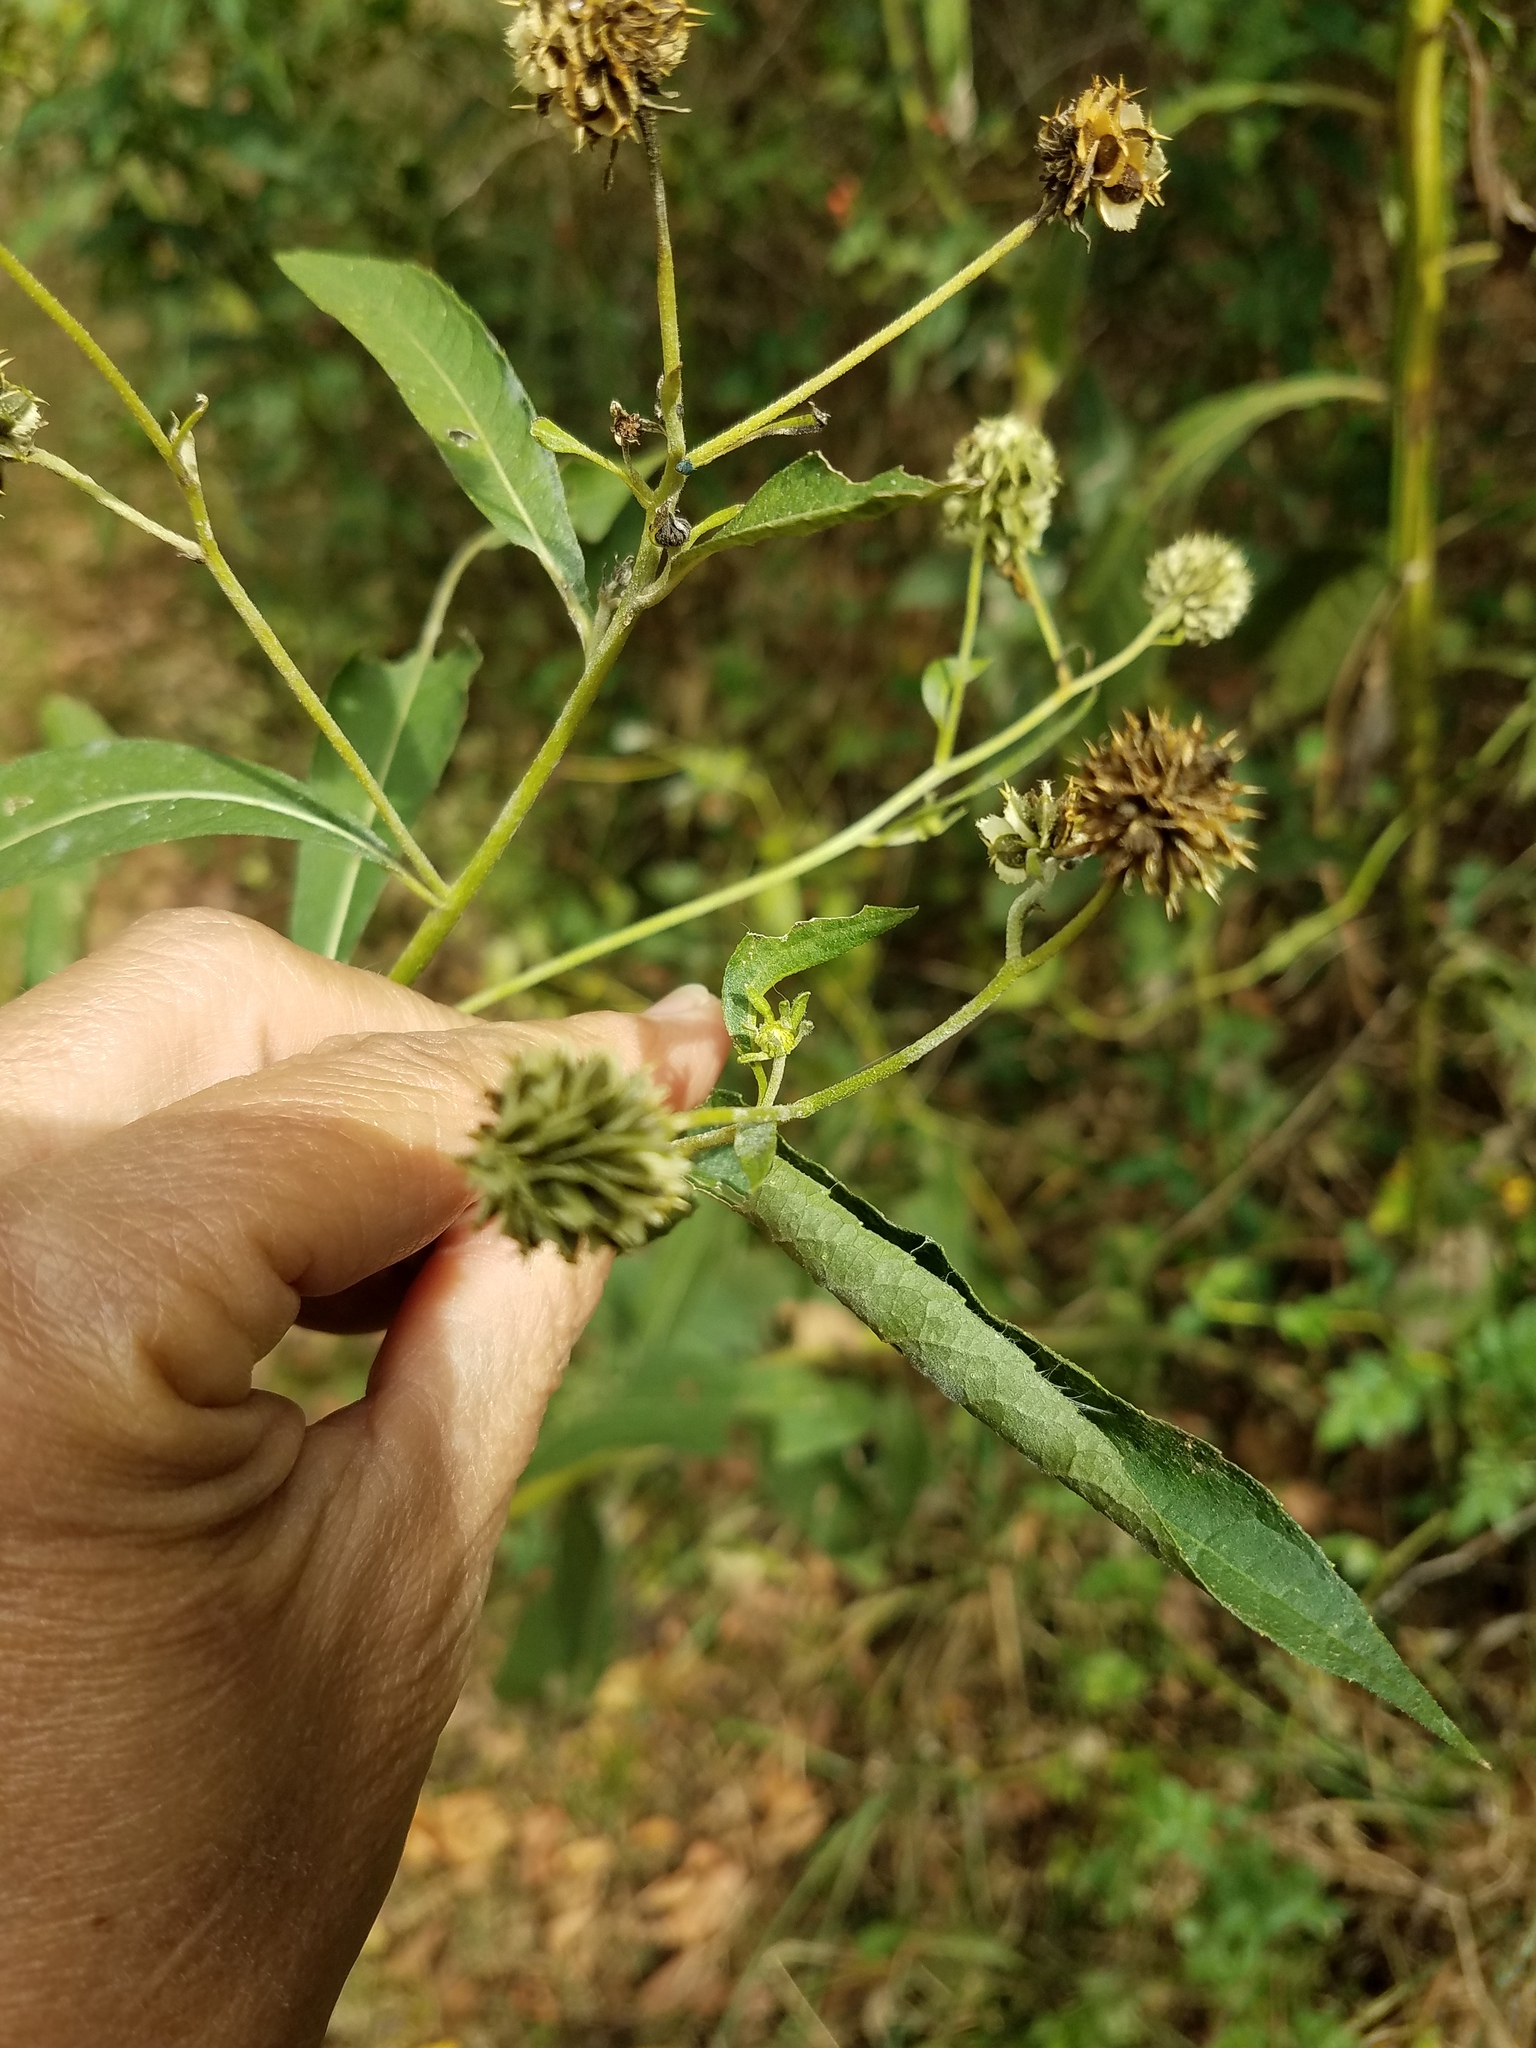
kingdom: Plantae
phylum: Tracheophyta
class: Magnoliopsida
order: Asterales
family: Asteraceae
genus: Verbesina
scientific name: Verbesina alternifolia
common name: Wingstem
